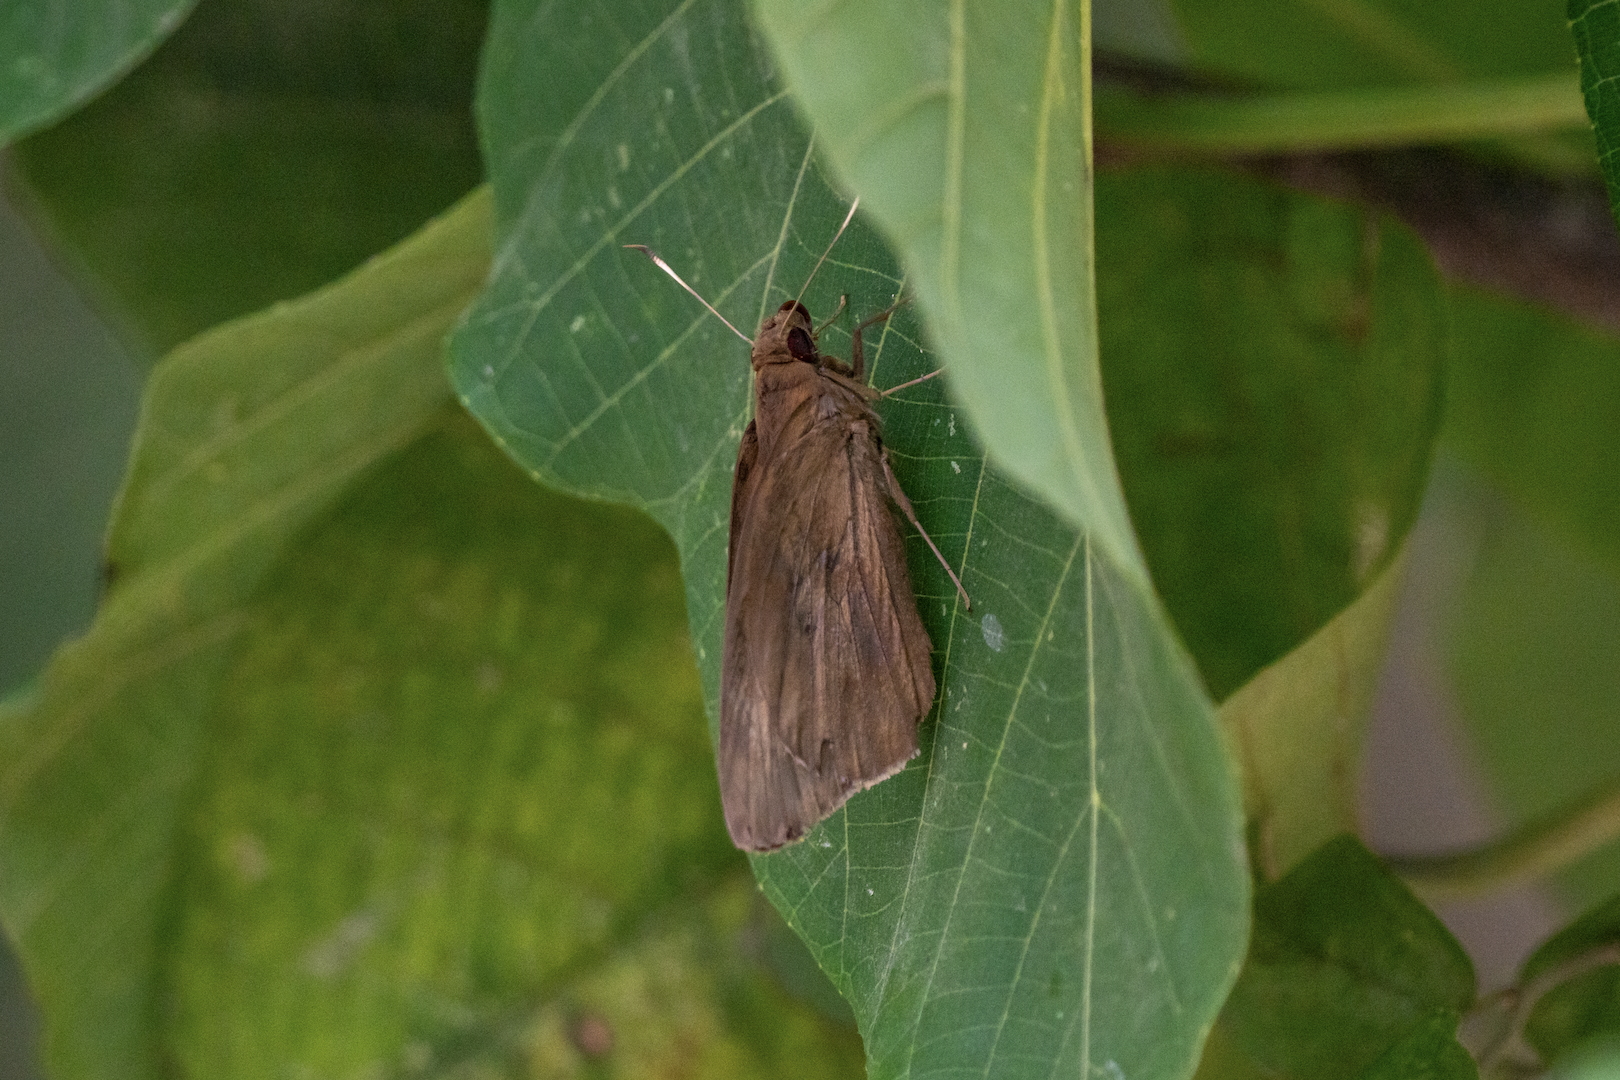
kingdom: Animalia
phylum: Arthropoda
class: Insecta
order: Lepidoptera
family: Hesperiidae
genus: Erionota
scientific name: Erionota torus
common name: Rounded palm-redeye
